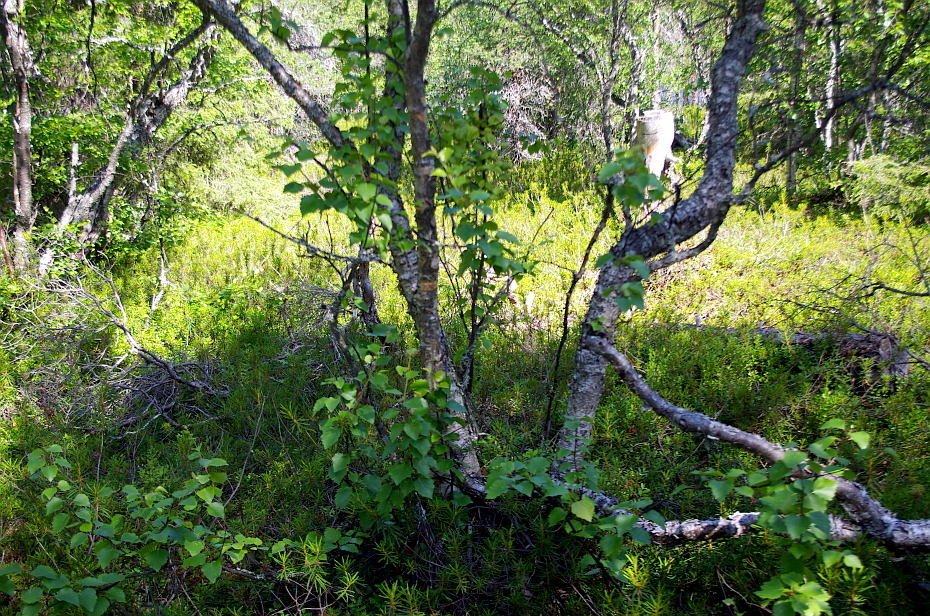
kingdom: Plantae
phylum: Tracheophyta
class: Magnoliopsida
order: Fagales
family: Betulaceae
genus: Betula
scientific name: Betula pubescens
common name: Downy birch
